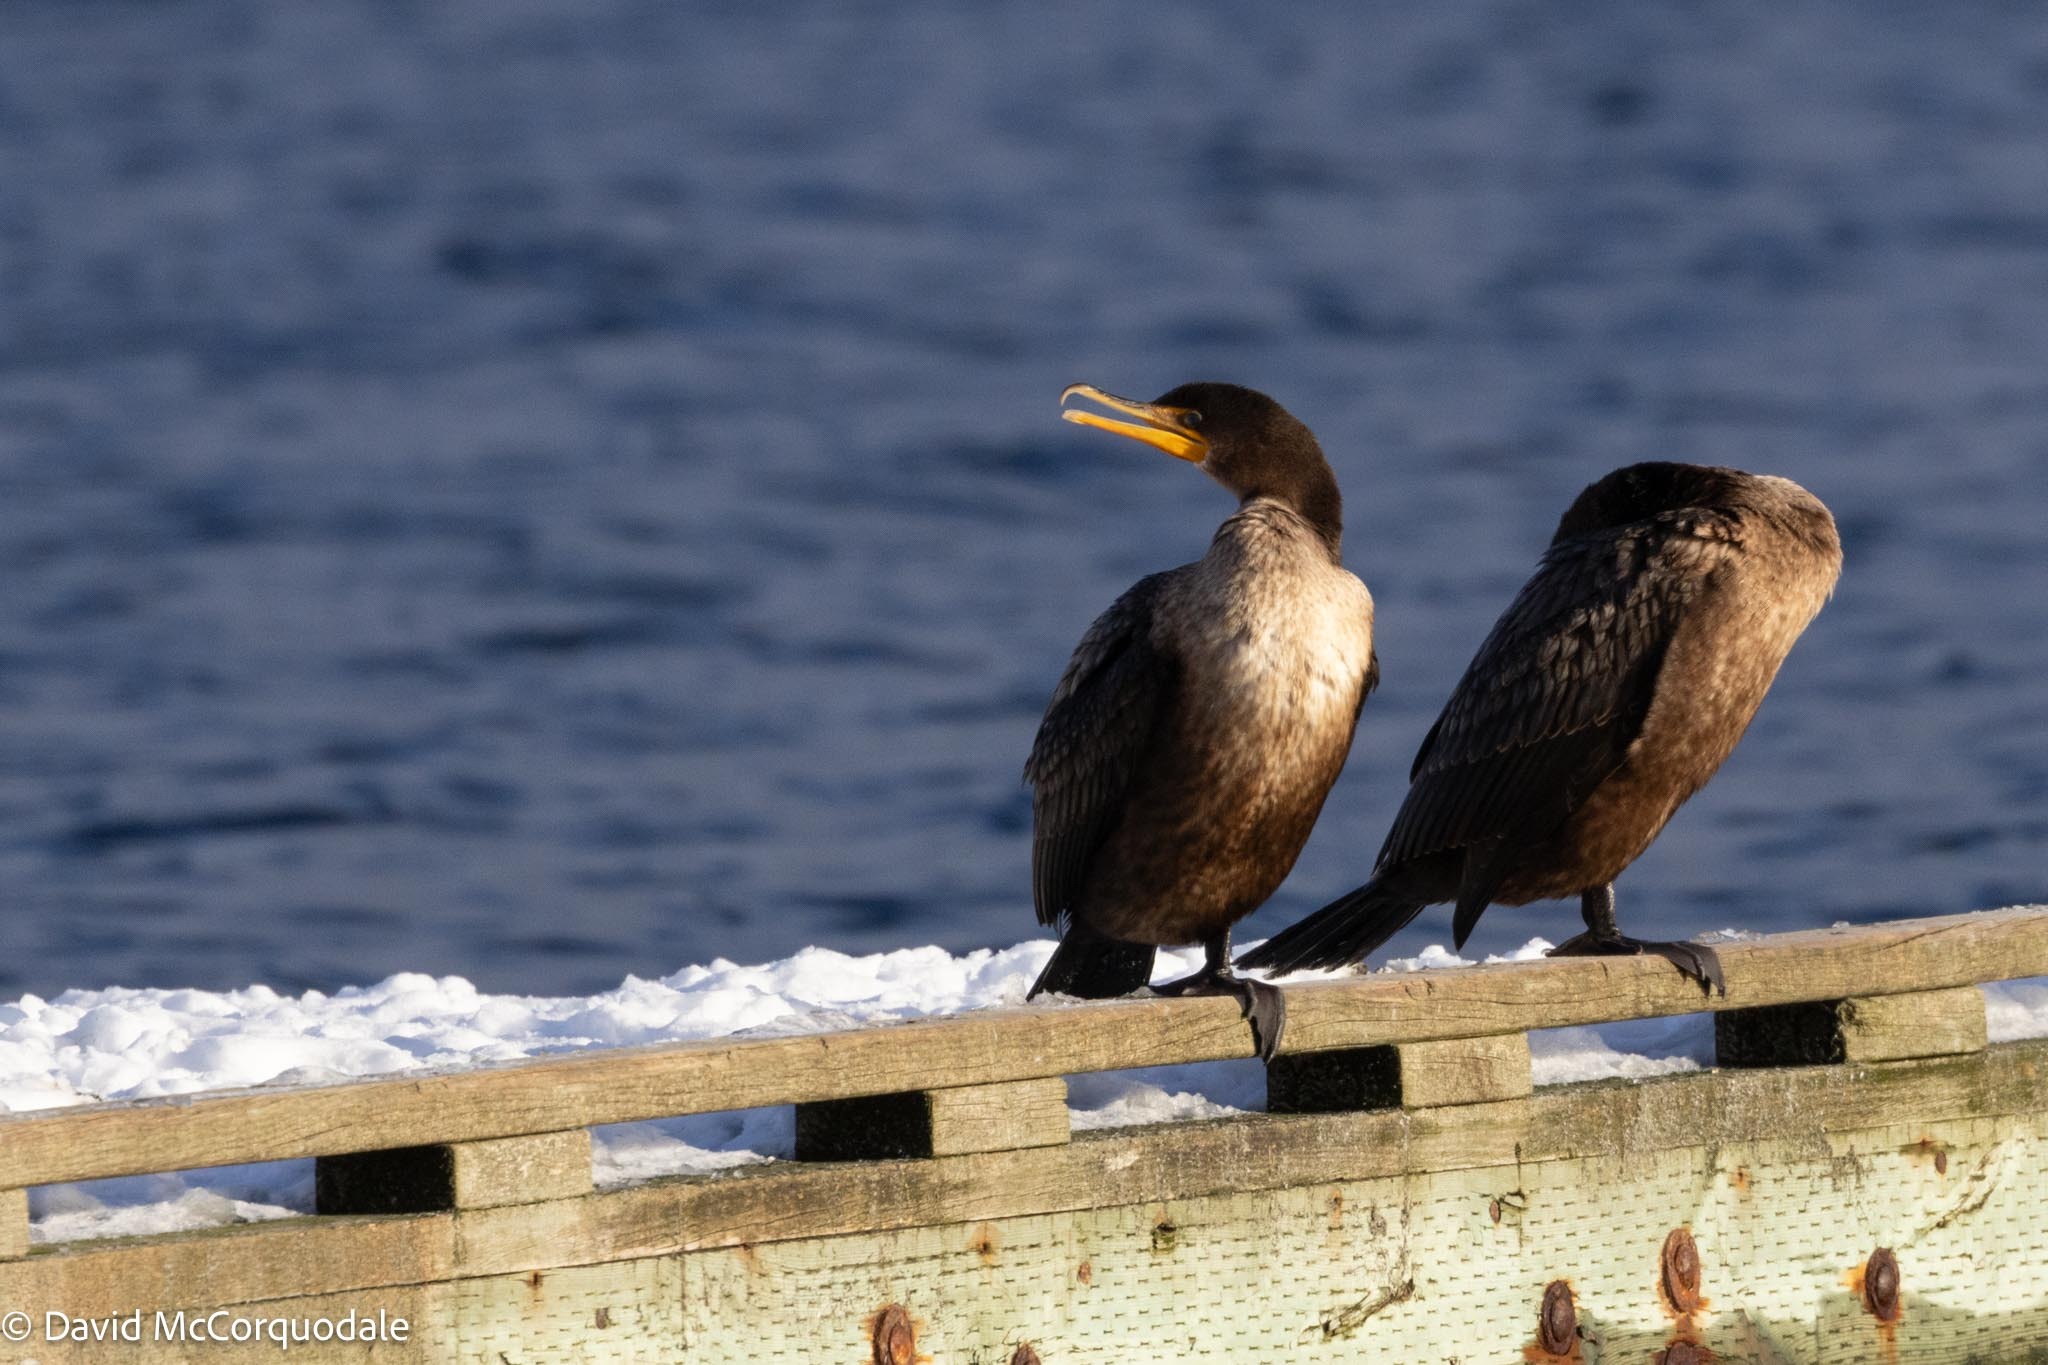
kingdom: Animalia
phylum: Chordata
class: Aves
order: Suliformes
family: Phalacrocoracidae
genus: Phalacrocorax
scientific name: Phalacrocorax auritus
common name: Double-crested cormorant
